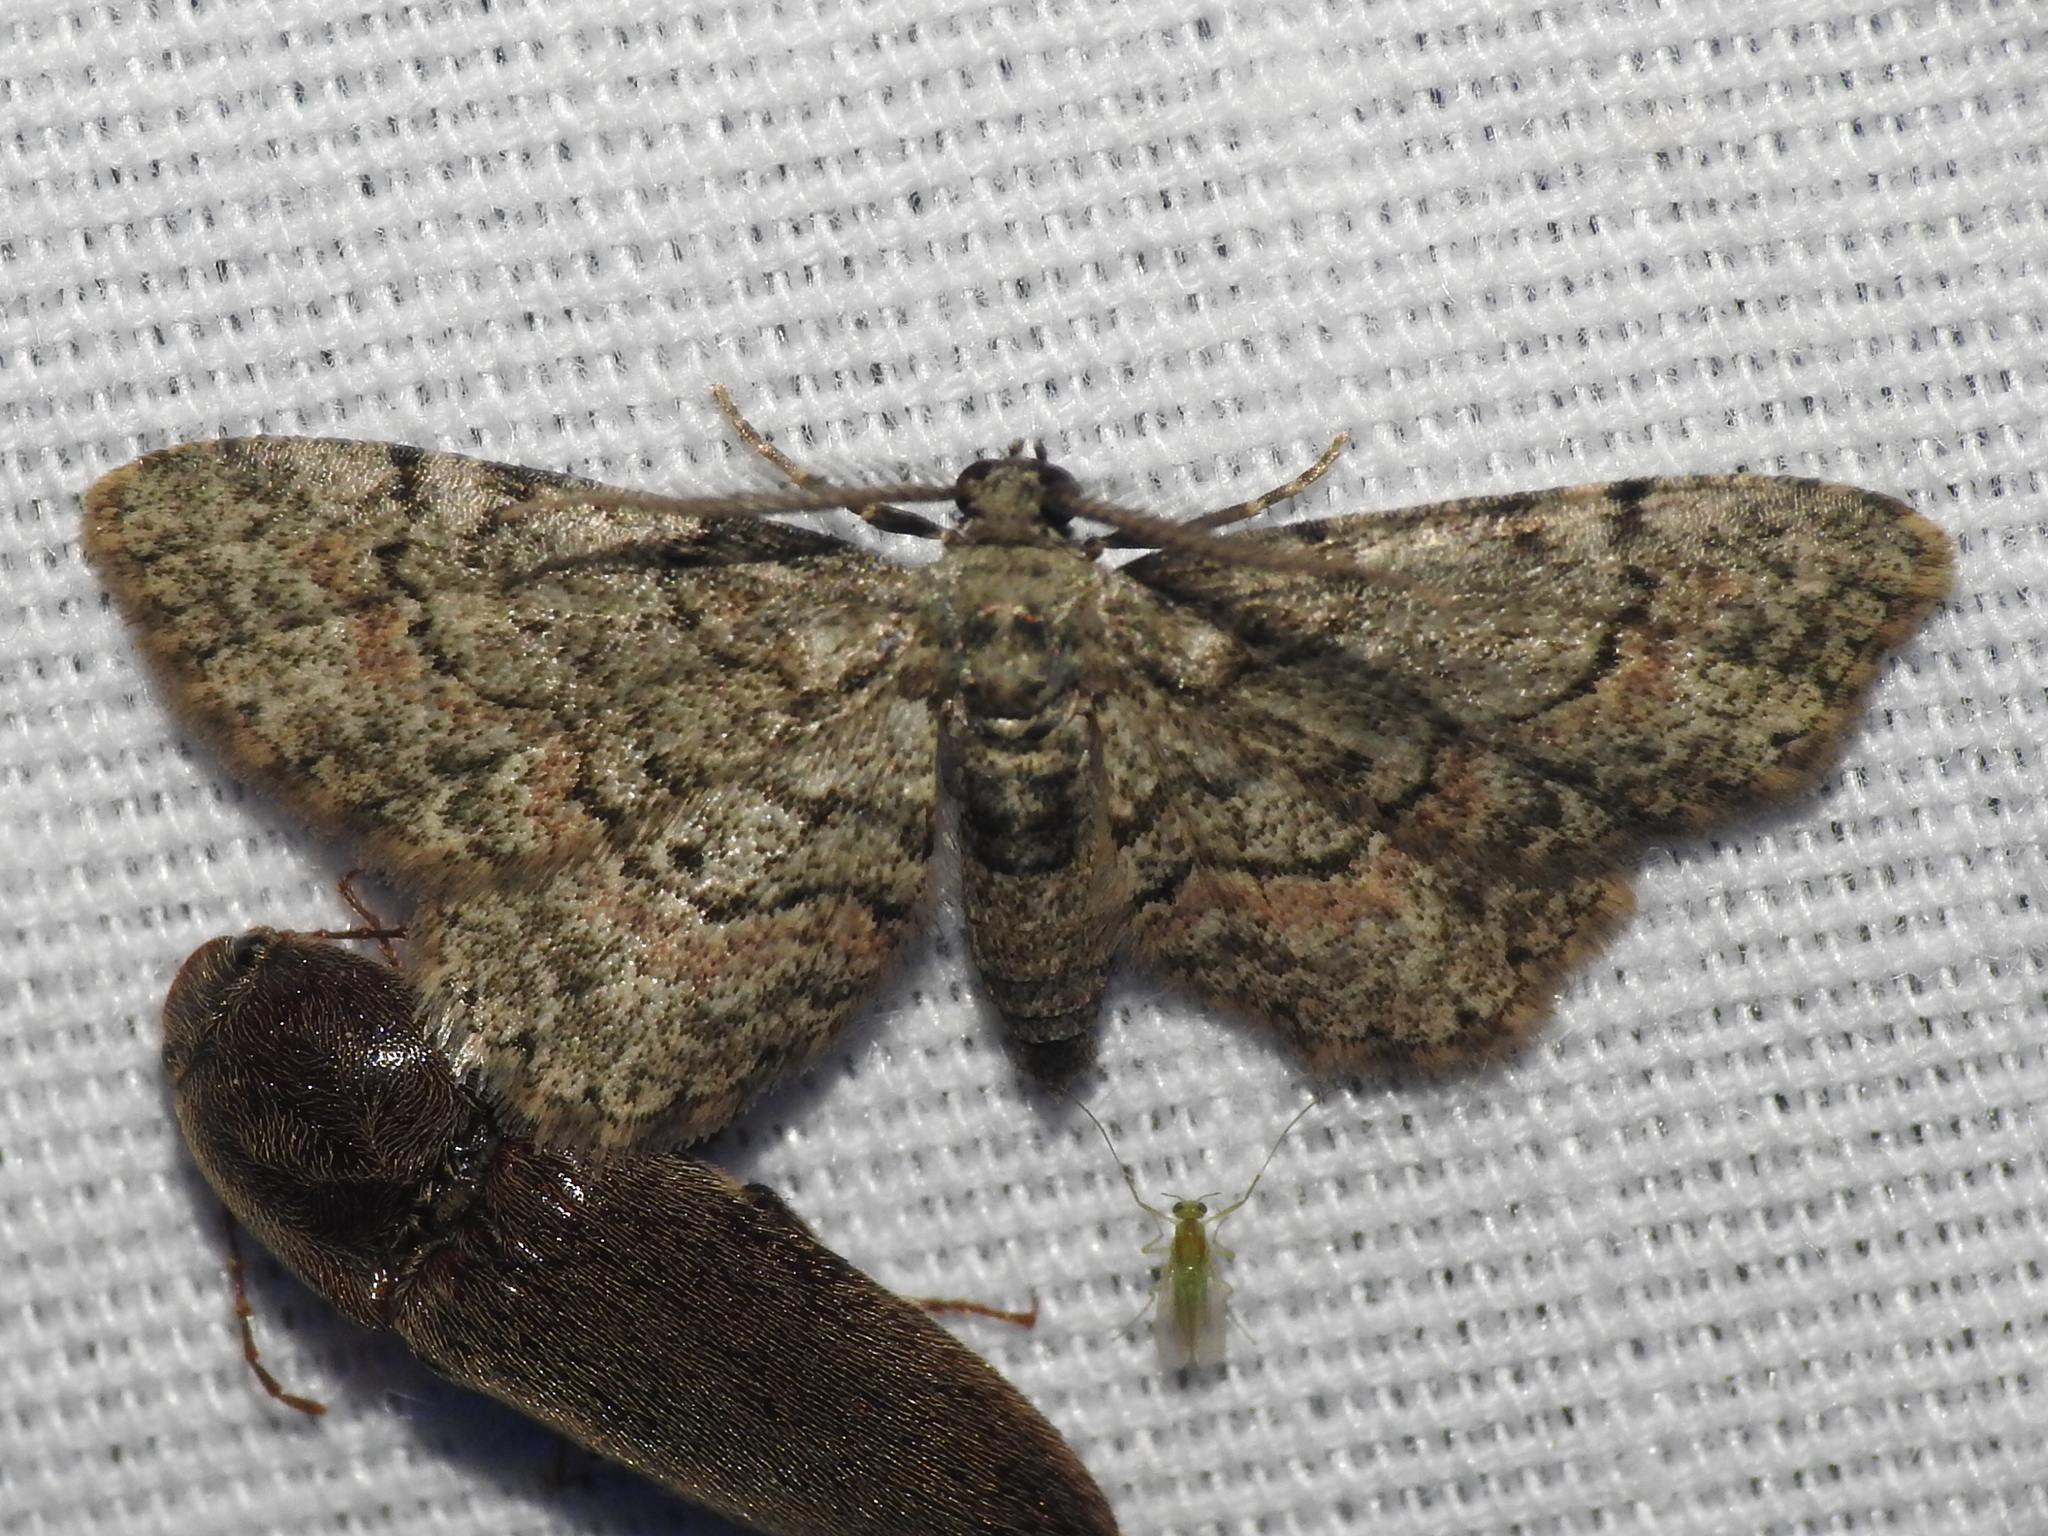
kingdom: Animalia
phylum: Arthropoda
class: Insecta
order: Lepidoptera
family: Geometridae
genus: Glenoides
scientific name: Glenoides texanaria
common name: Texas gray
